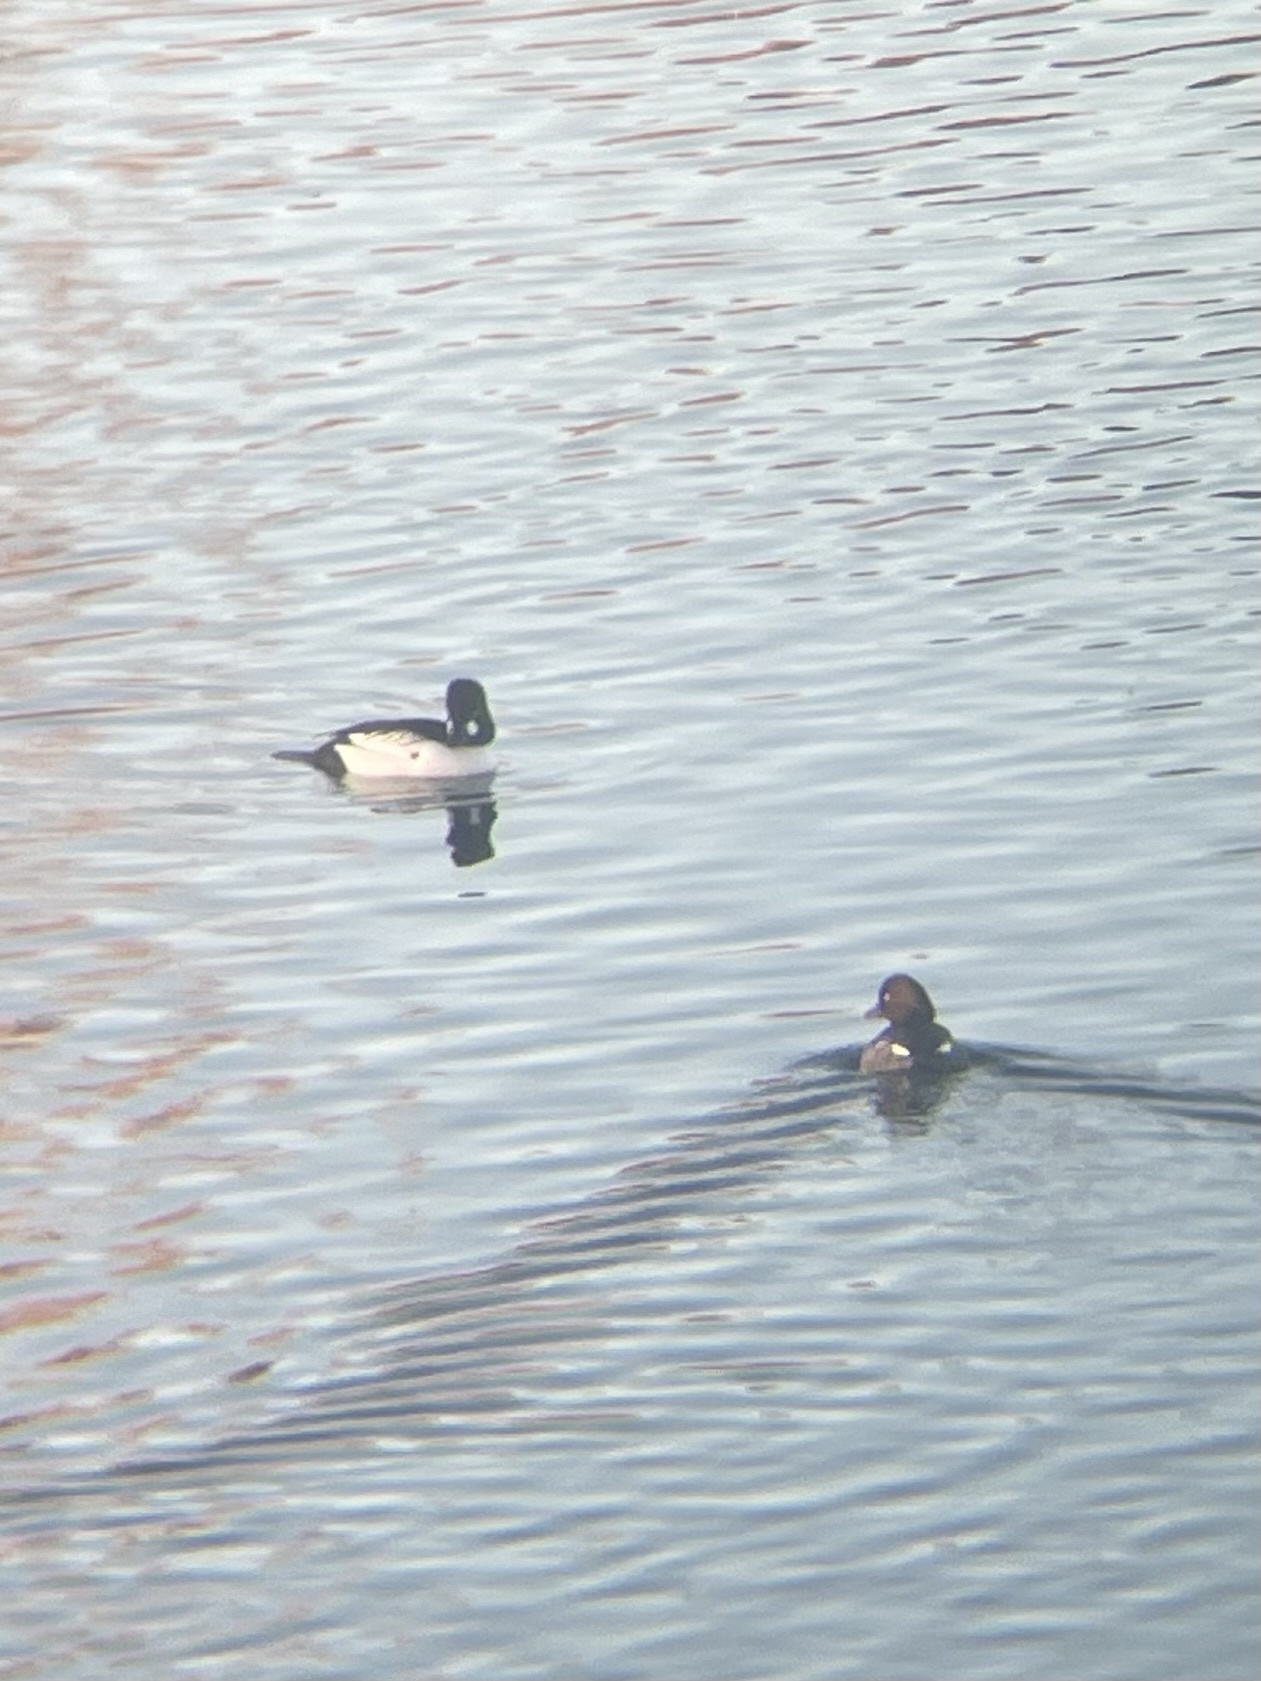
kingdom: Animalia
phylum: Chordata
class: Aves
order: Anseriformes
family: Anatidae
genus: Bucephala
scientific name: Bucephala clangula
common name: Common goldeneye
